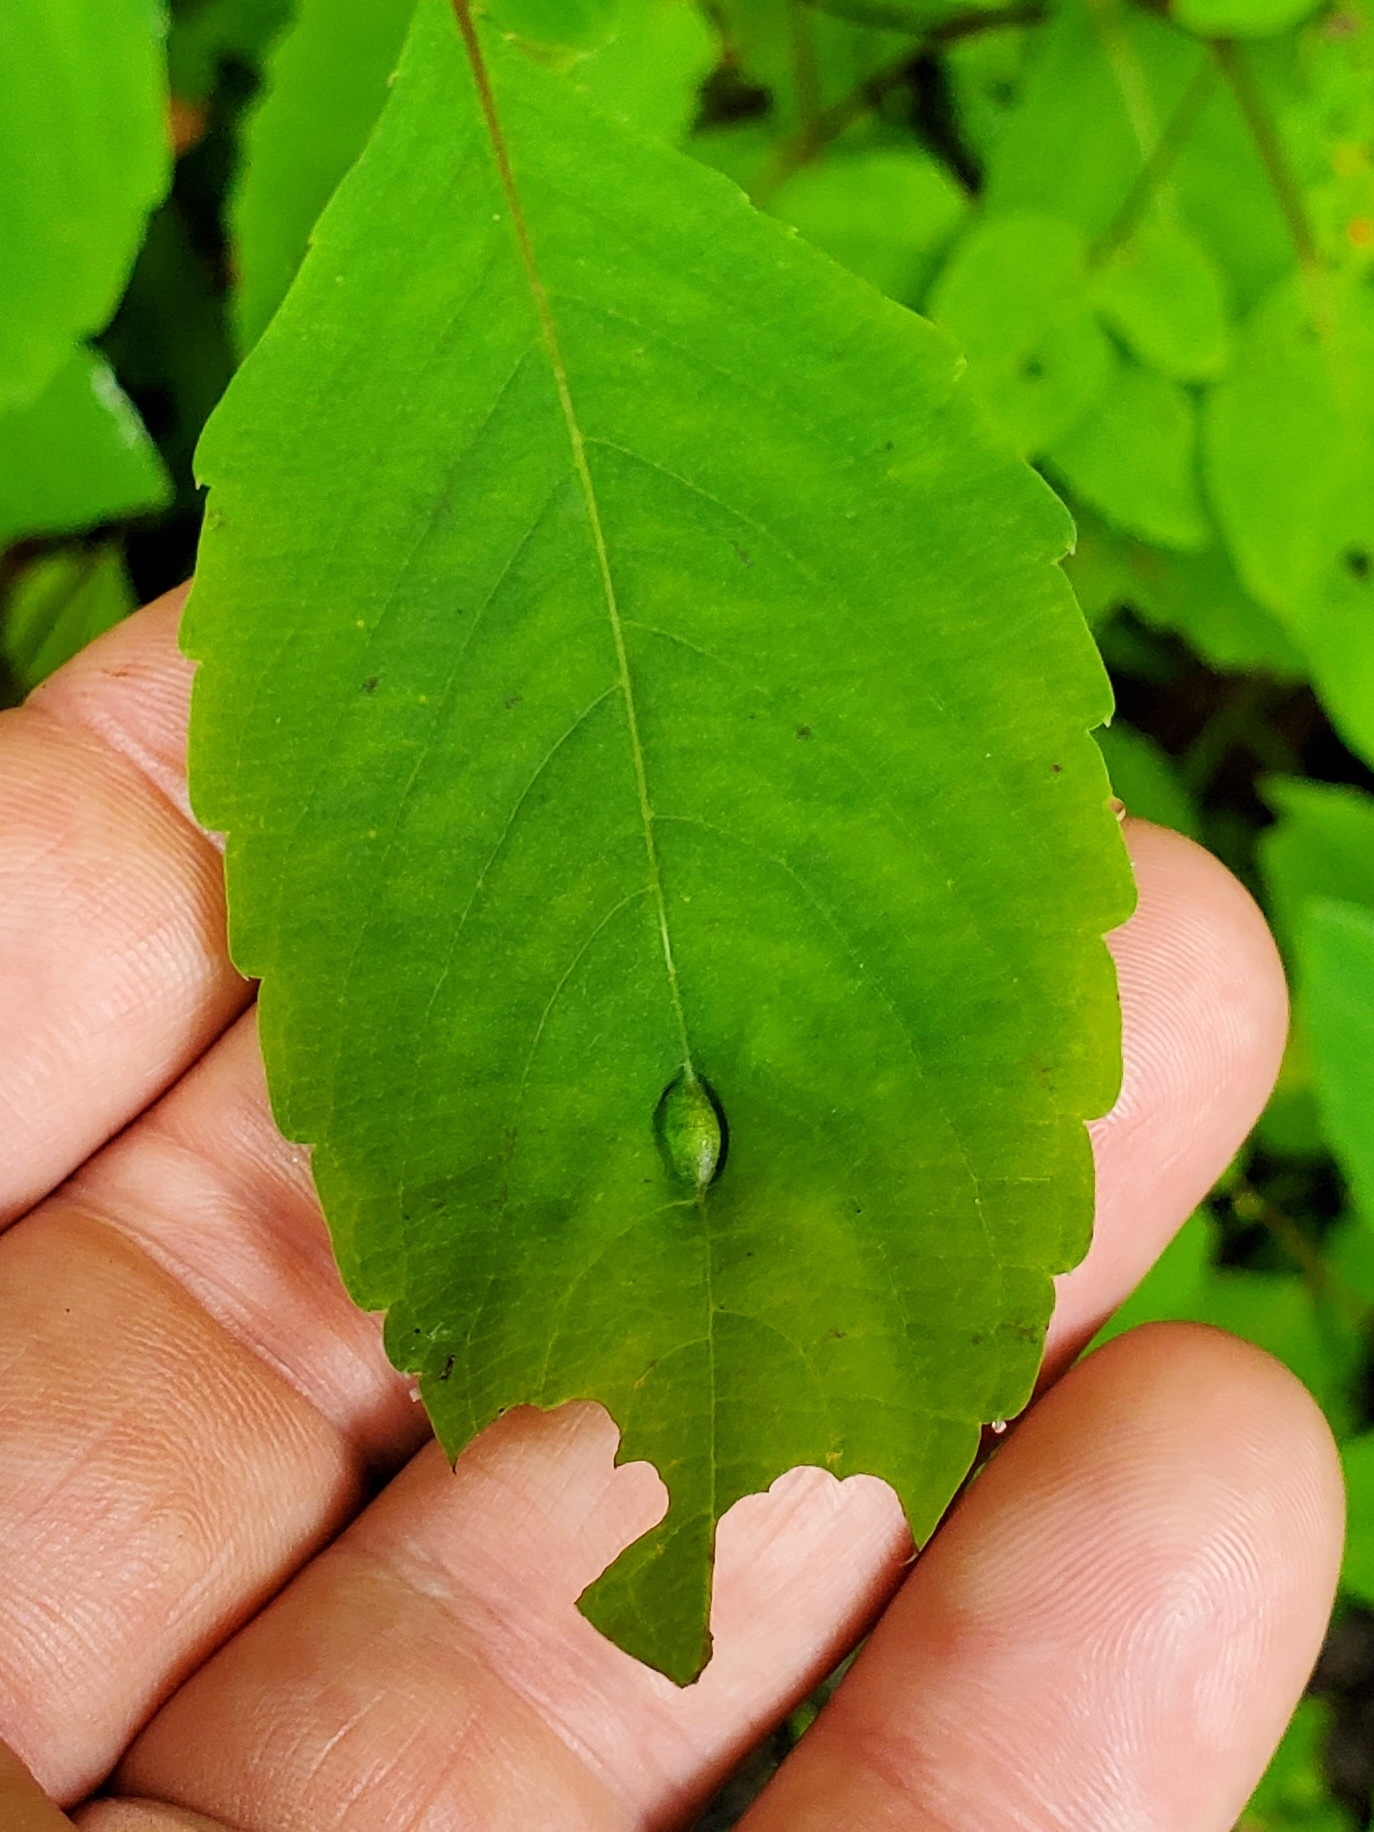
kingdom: Animalia
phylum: Arthropoda
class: Insecta
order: Diptera
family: Cecidomyiidae
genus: Neolasioptera
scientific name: Neolasioptera impatientifolia
